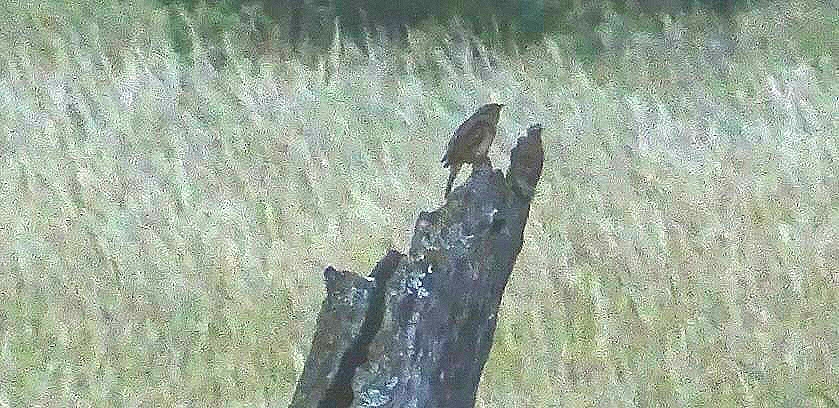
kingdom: Animalia
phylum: Chordata
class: Aves
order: Piciformes
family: Picidae
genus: Jynx
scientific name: Jynx torquilla
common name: Eurasian wryneck
